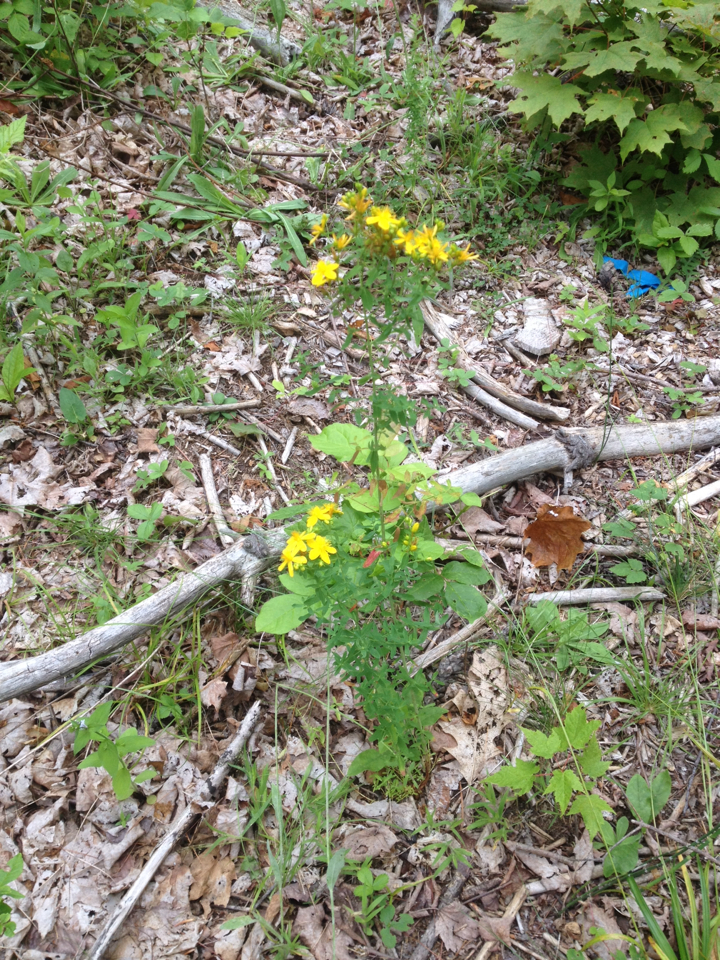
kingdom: Plantae
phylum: Tracheophyta
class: Magnoliopsida
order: Malpighiales
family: Hypericaceae
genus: Hypericum
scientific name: Hypericum perforatum
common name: Common st. johnswort
